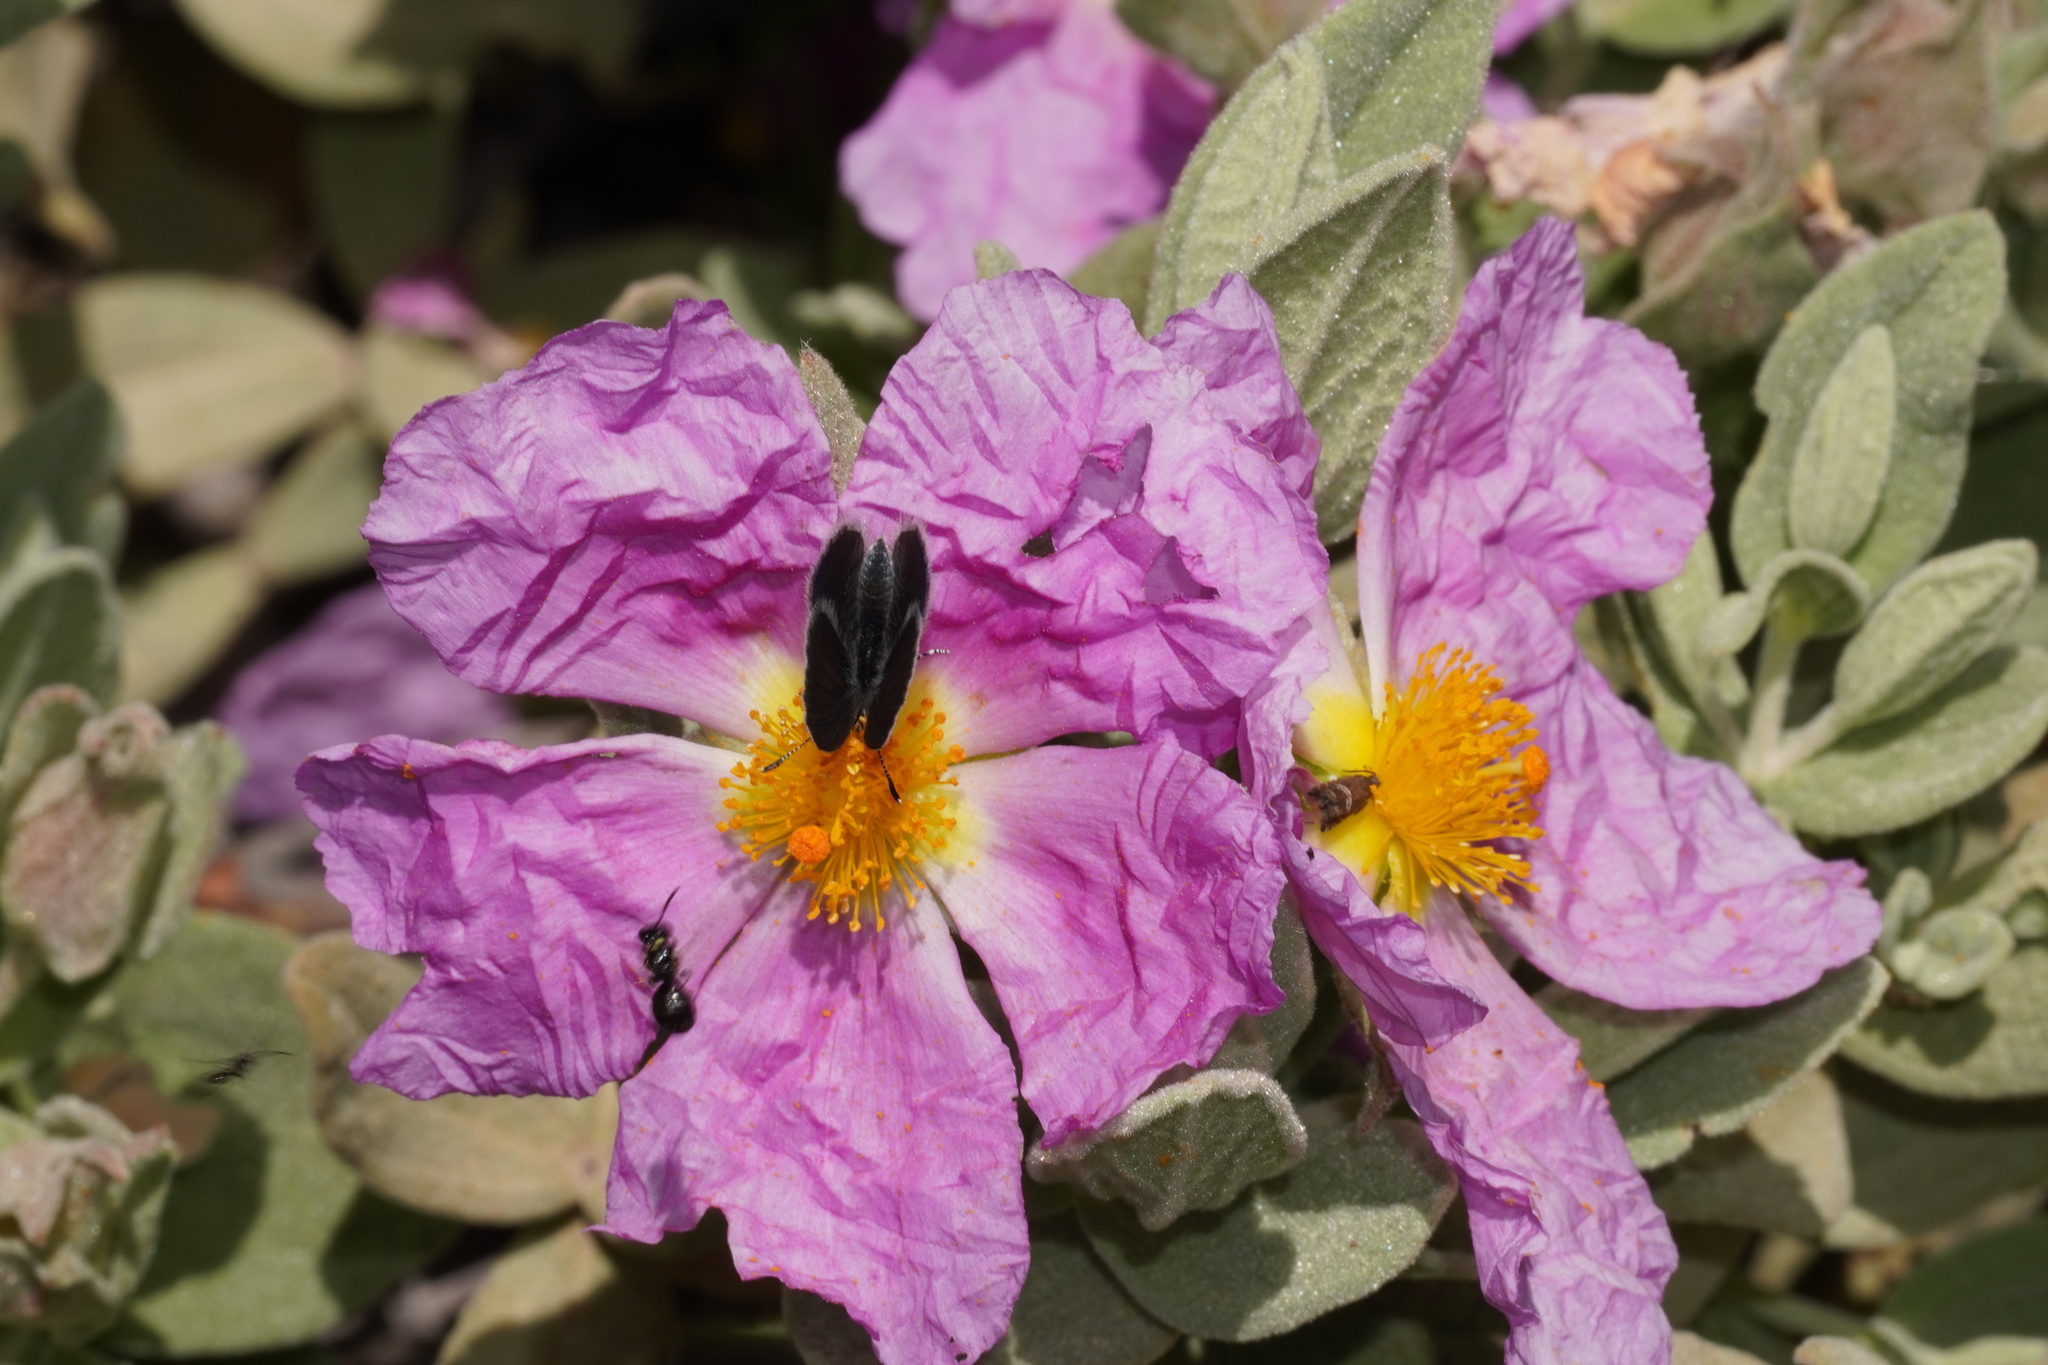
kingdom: Animalia
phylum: Arthropoda
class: Insecta
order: Lepidoptera
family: Lycaenidae
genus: Cupido
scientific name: Cupido lorquinii
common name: Lorquin’s blue
